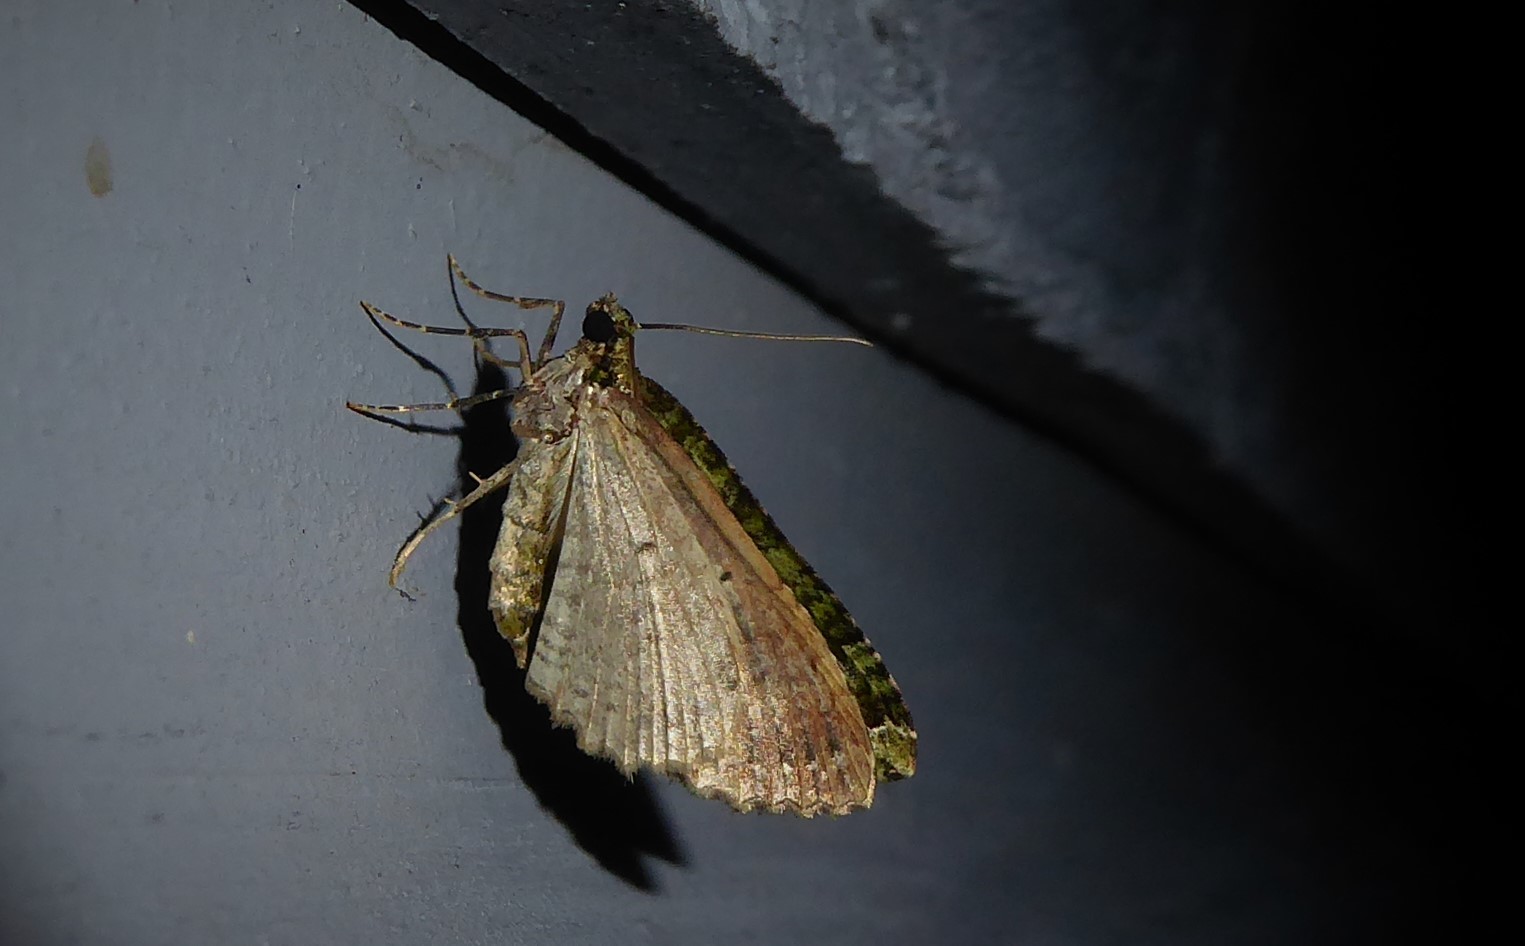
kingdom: Animalia
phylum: Arthropoda
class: Insecta
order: Lepidoptera
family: Geometridae
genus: Austrocidaria
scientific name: Austrocidaria similata
